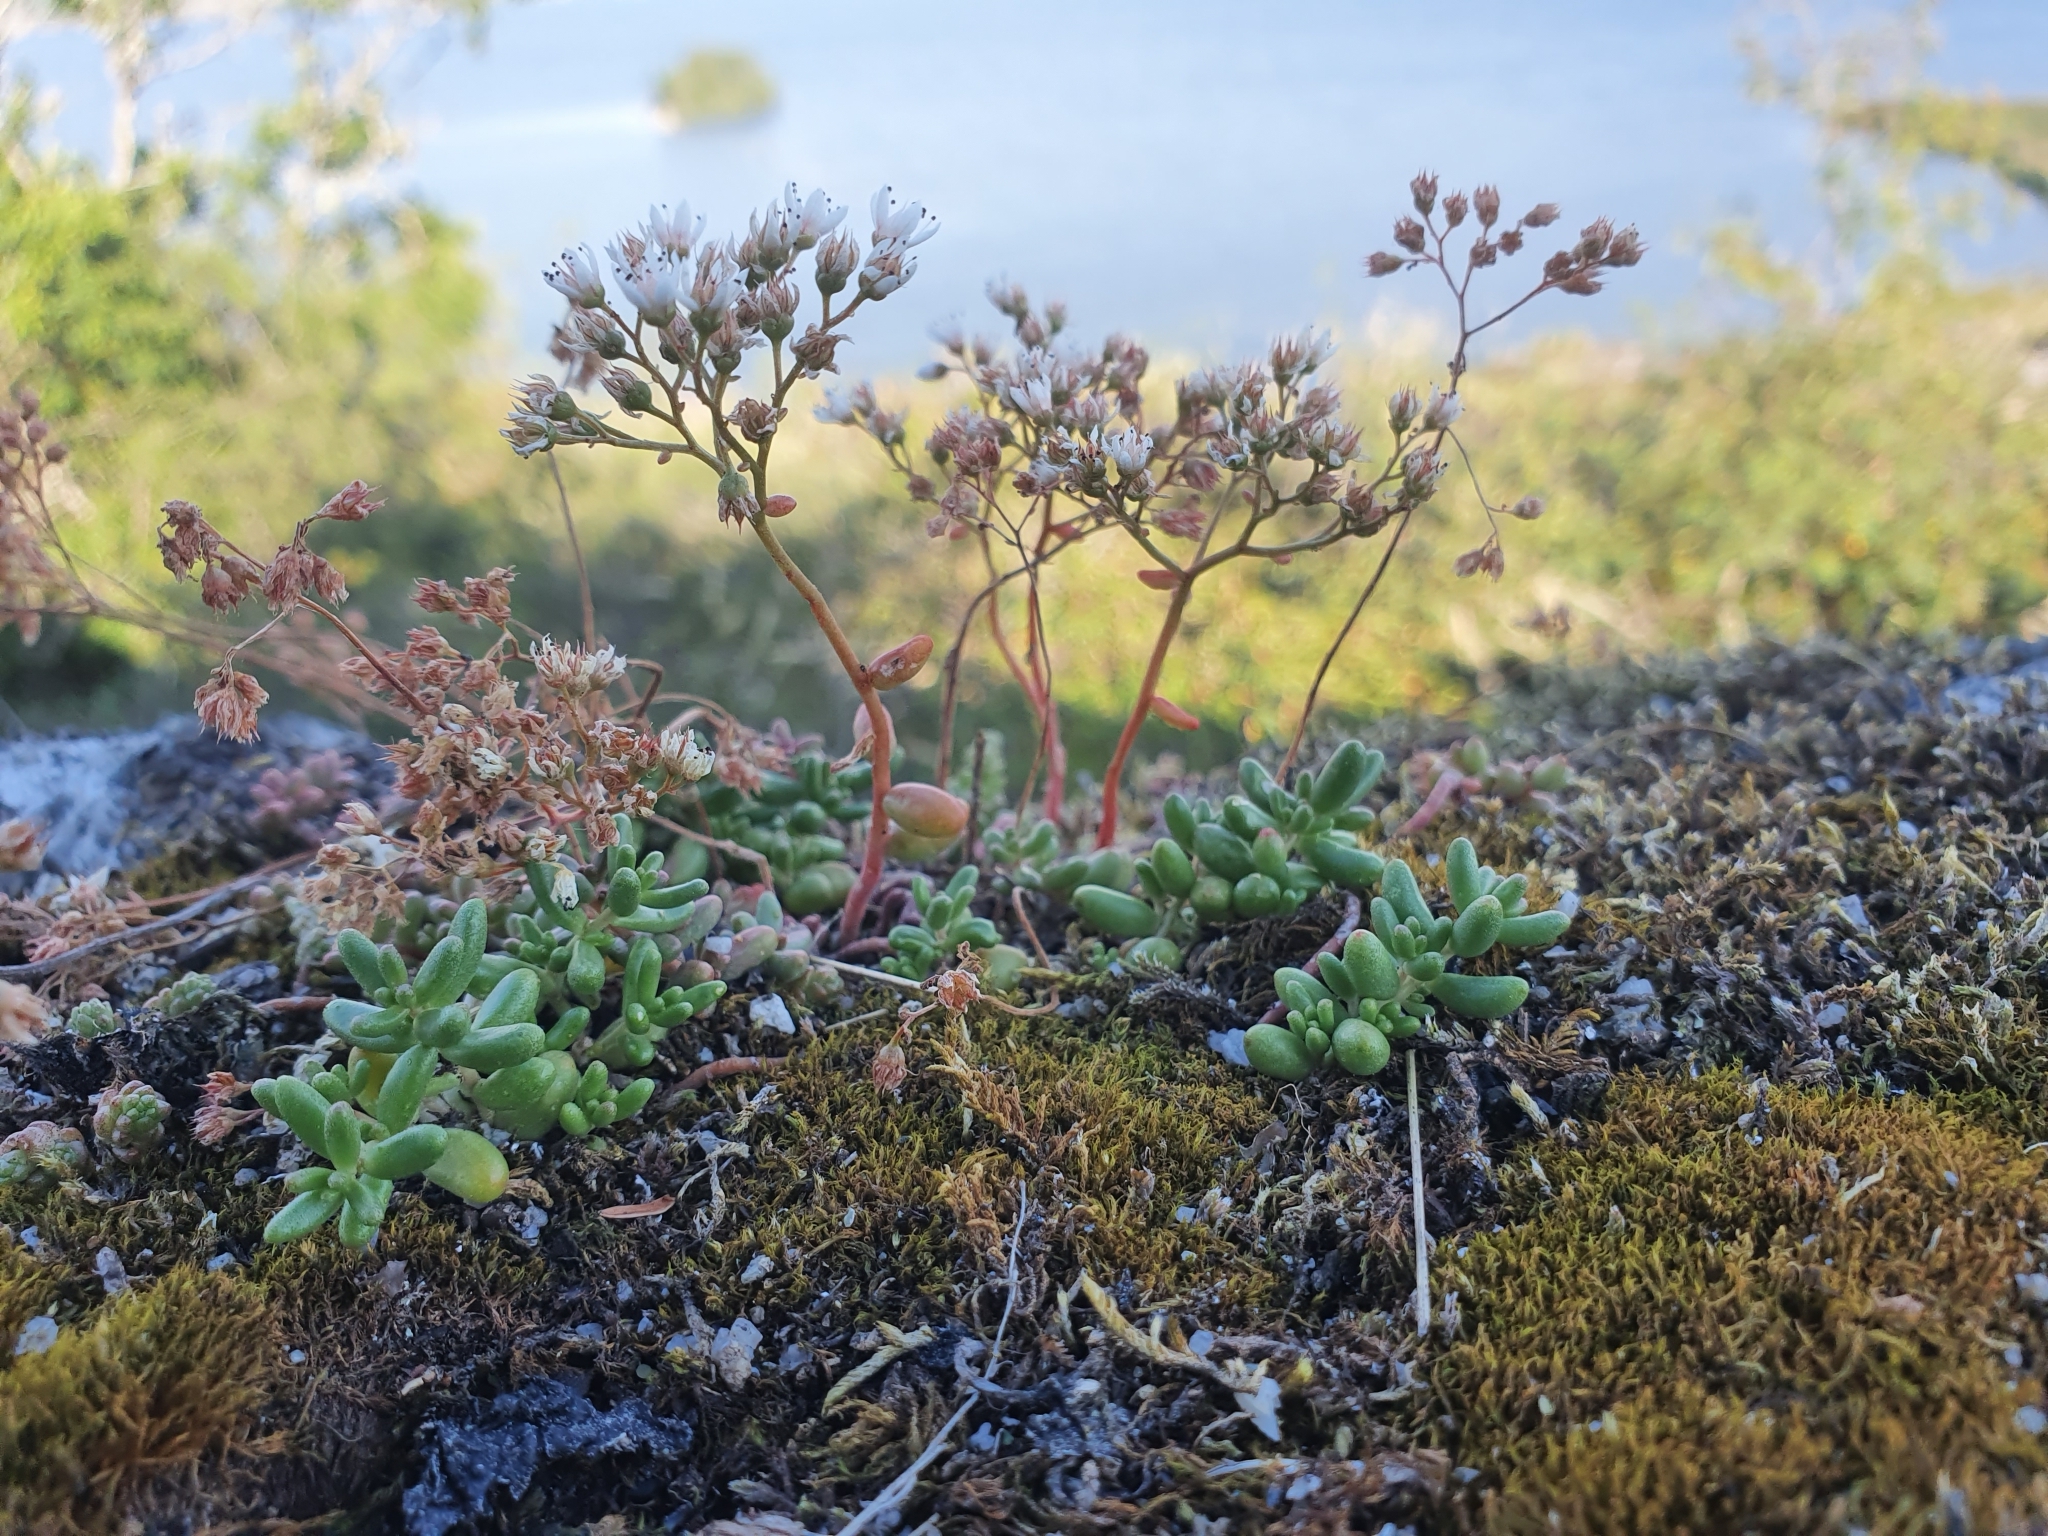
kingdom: Plantae
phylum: Tracheophyta
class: Magnoliopsida
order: Saxifragales
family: Crassulaceae
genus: Sedum
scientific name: Sedum album
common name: White stonecrop
